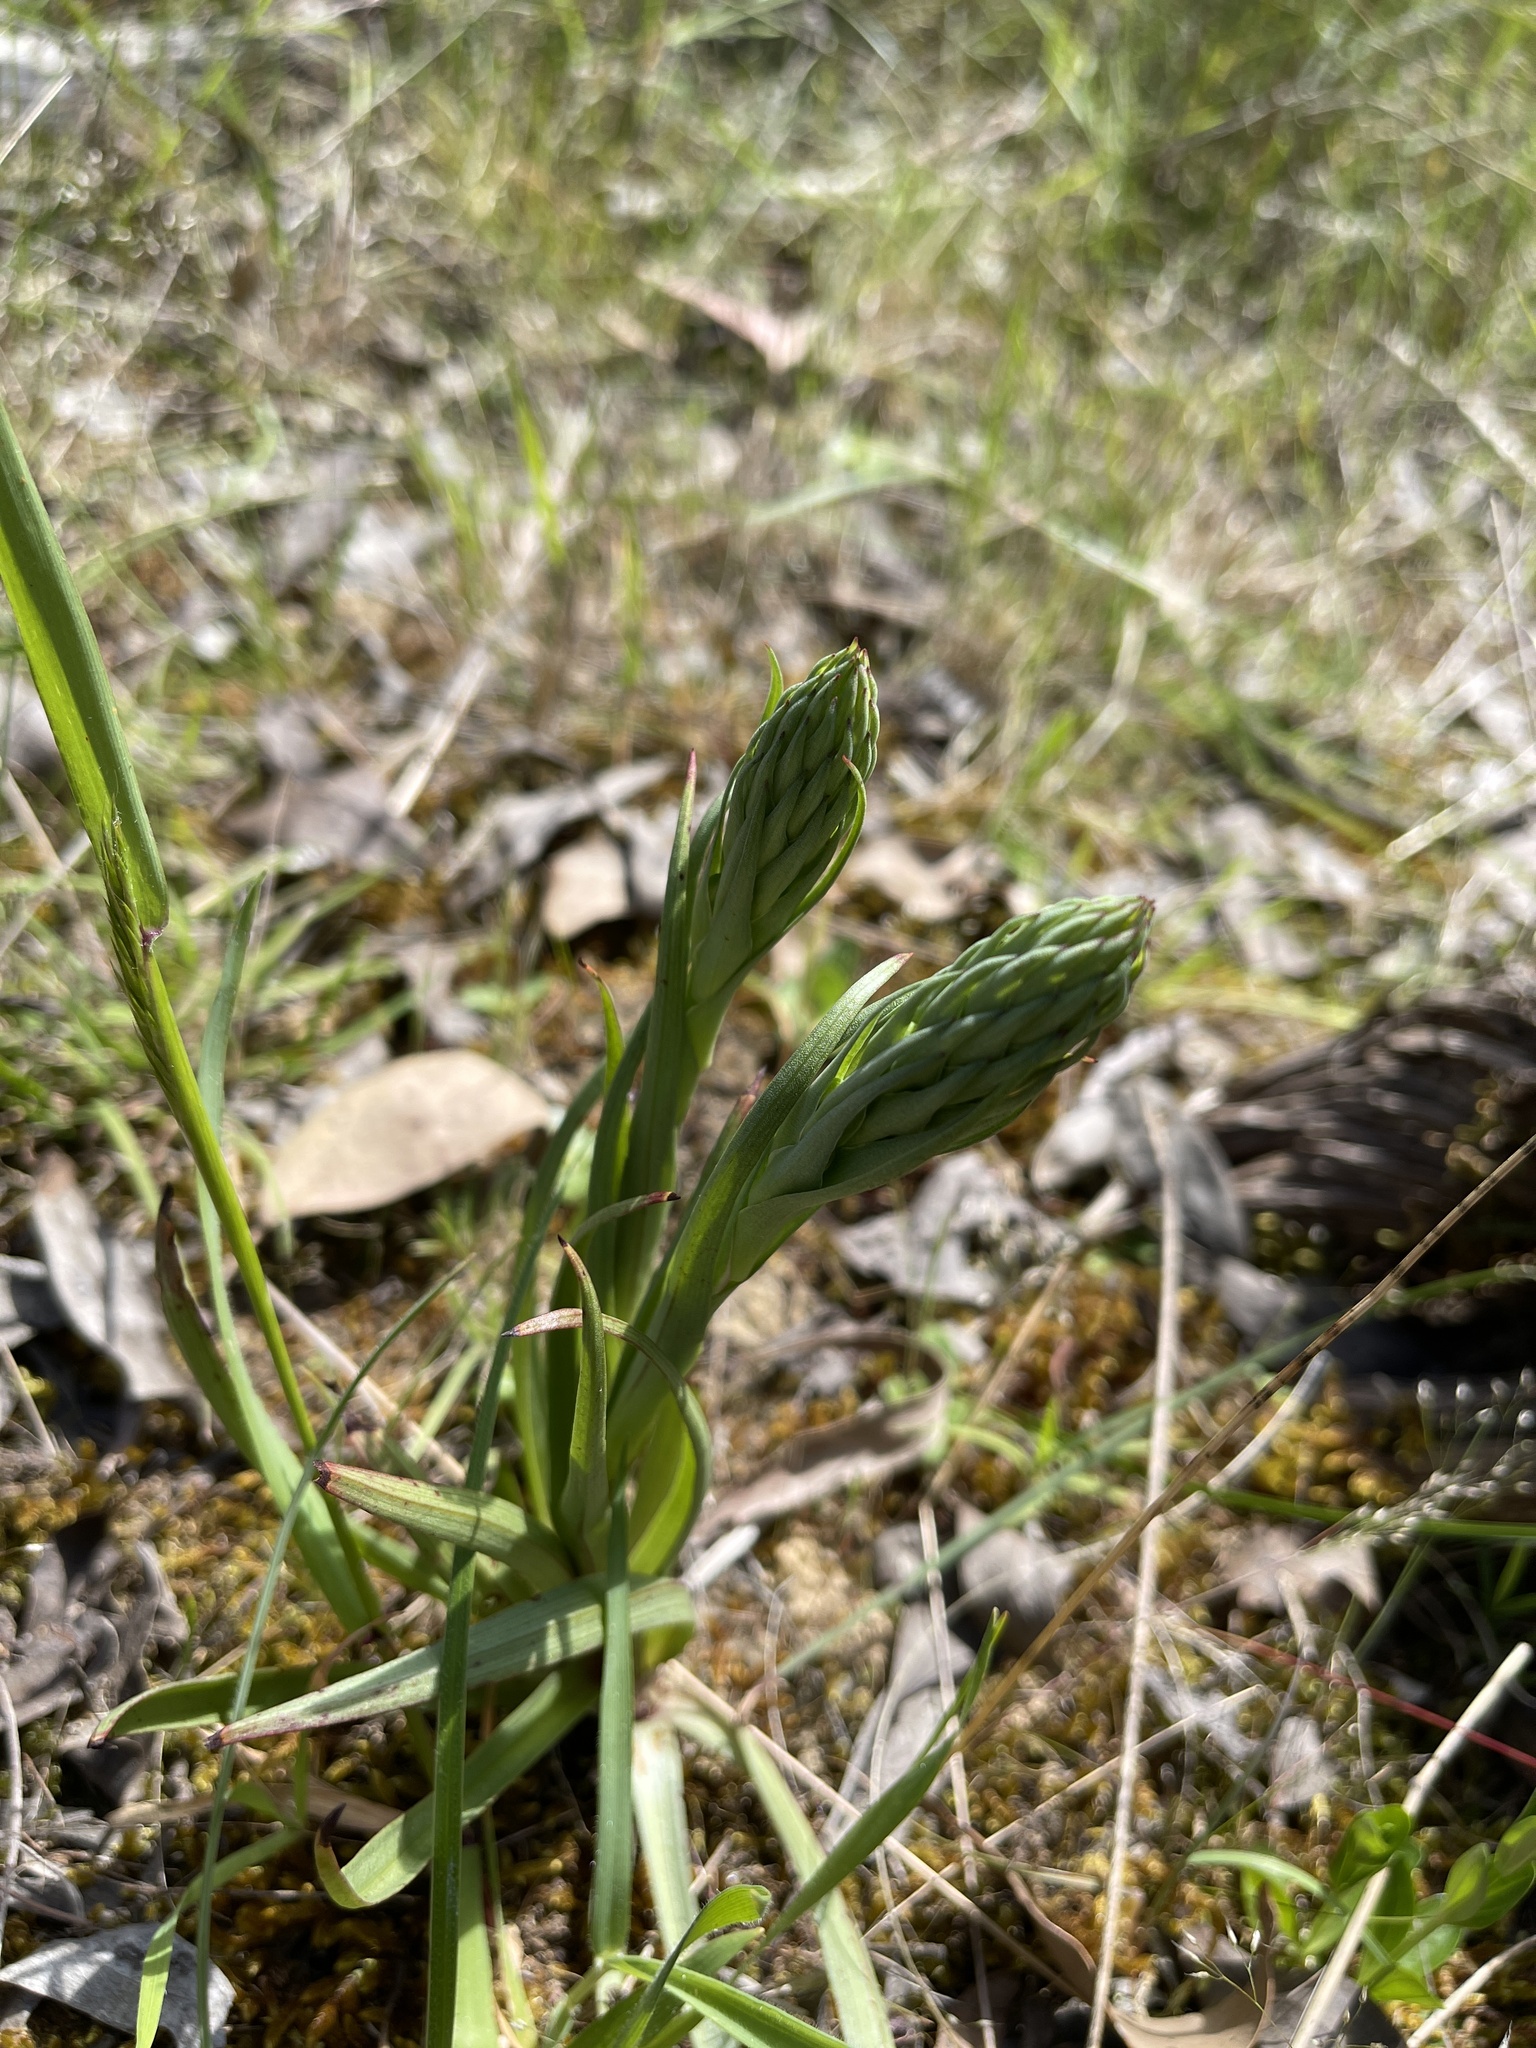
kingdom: Plantae
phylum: Tracheophyta
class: Liliopsida
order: Asparagales
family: Orchidaceae
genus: Disa
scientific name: Disa bracteata
